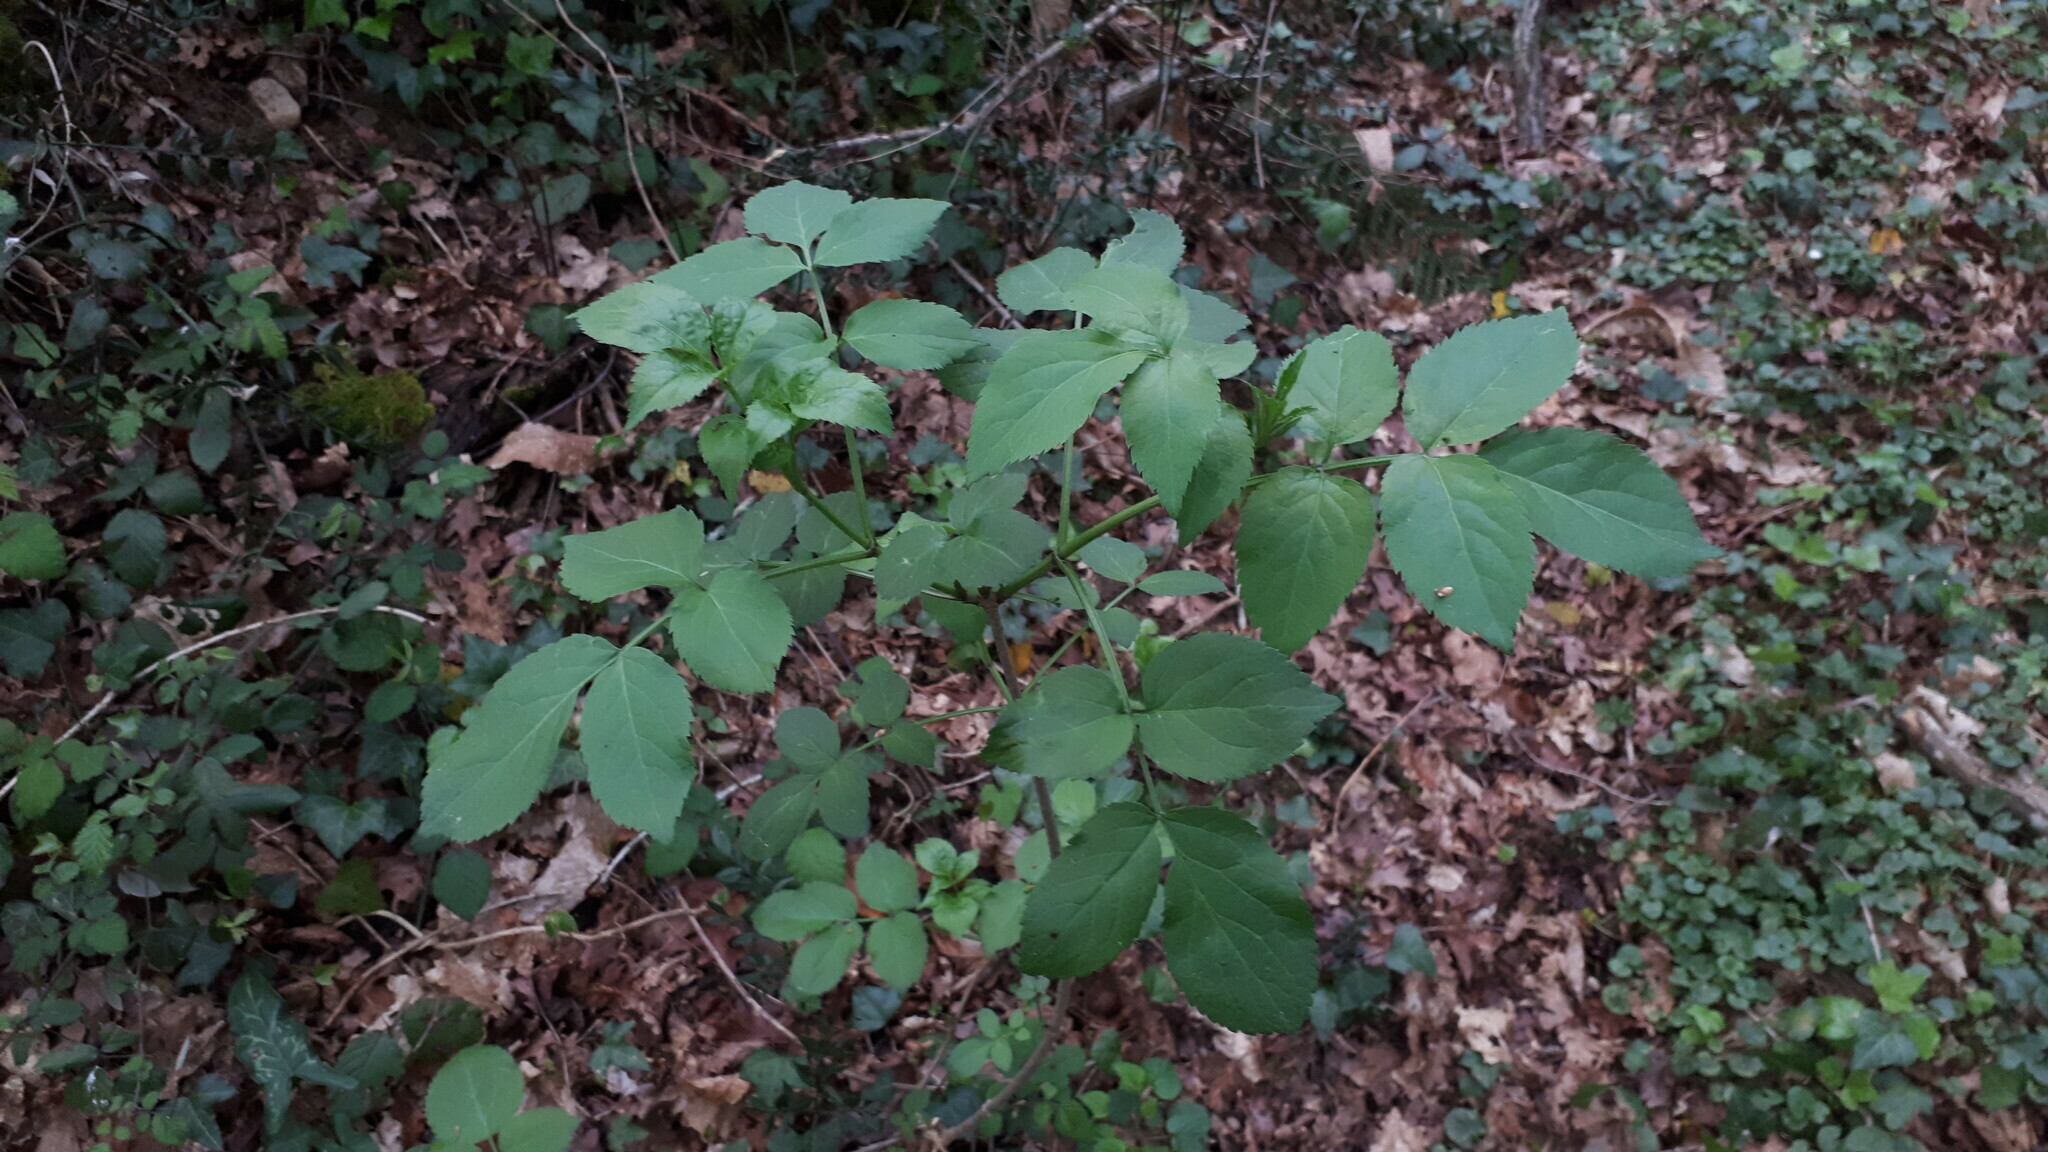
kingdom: Plantae
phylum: Tracheophyta
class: Magnoliopsida
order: Dipsacales
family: Viburnaceae
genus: Sambucus
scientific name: Sambucus nigra
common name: Elder
